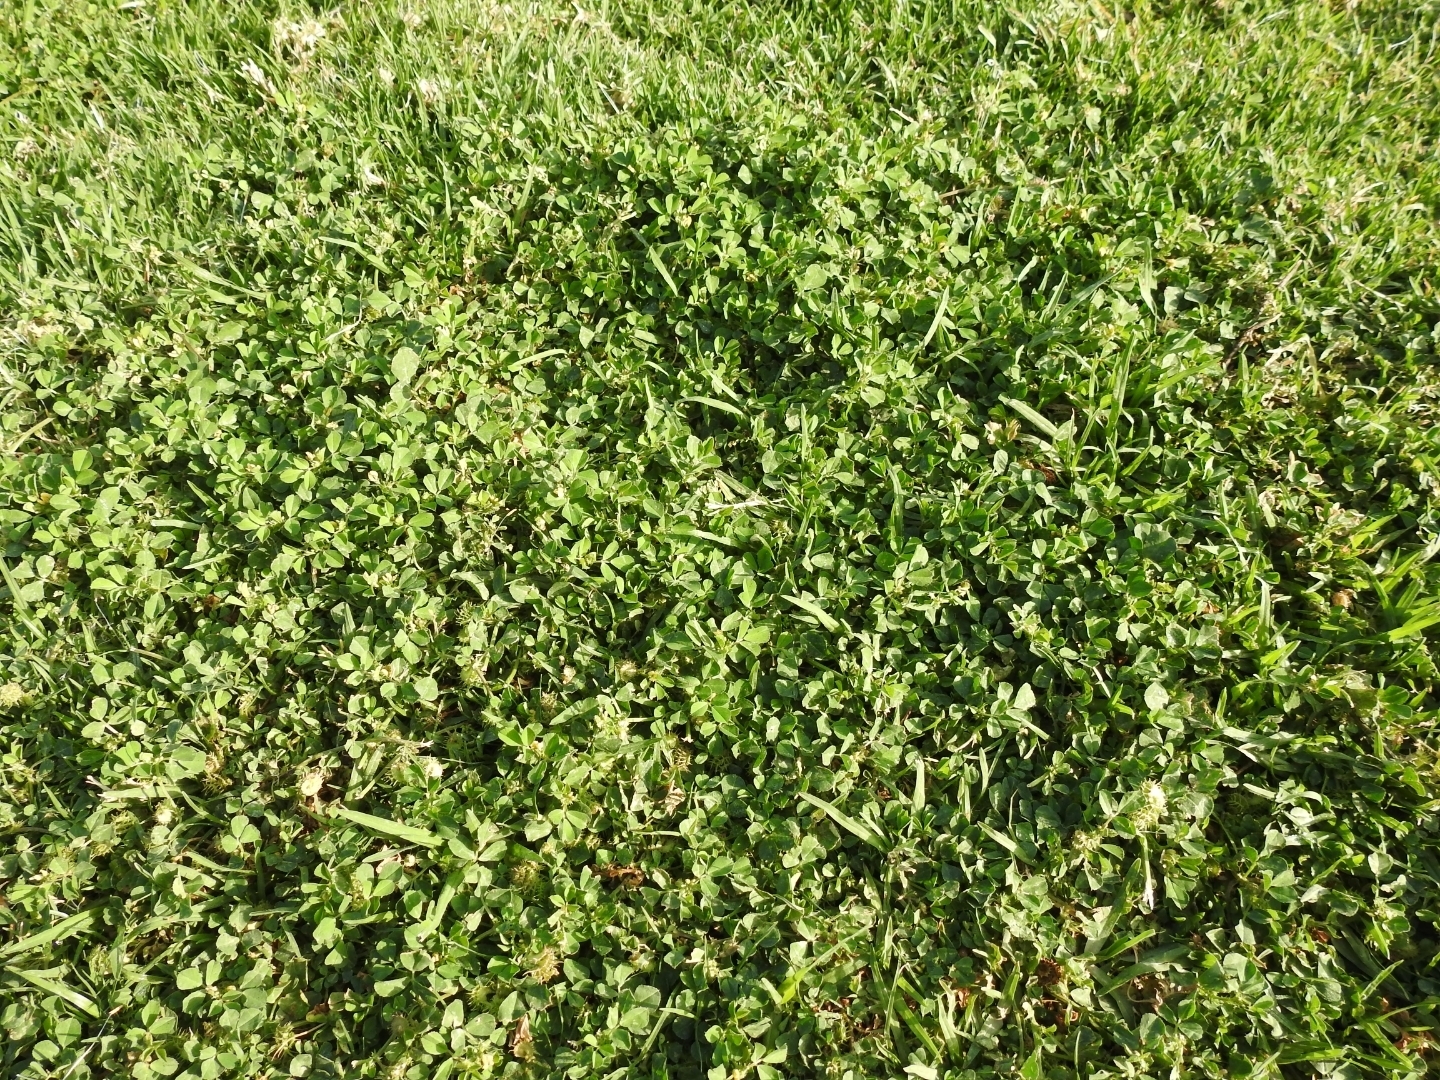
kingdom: Plantae
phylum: Tracheophyta
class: Magnoliopsida
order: Fabales
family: Fabaceae
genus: Medicago
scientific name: Medicago polymorpha
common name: Burclover
